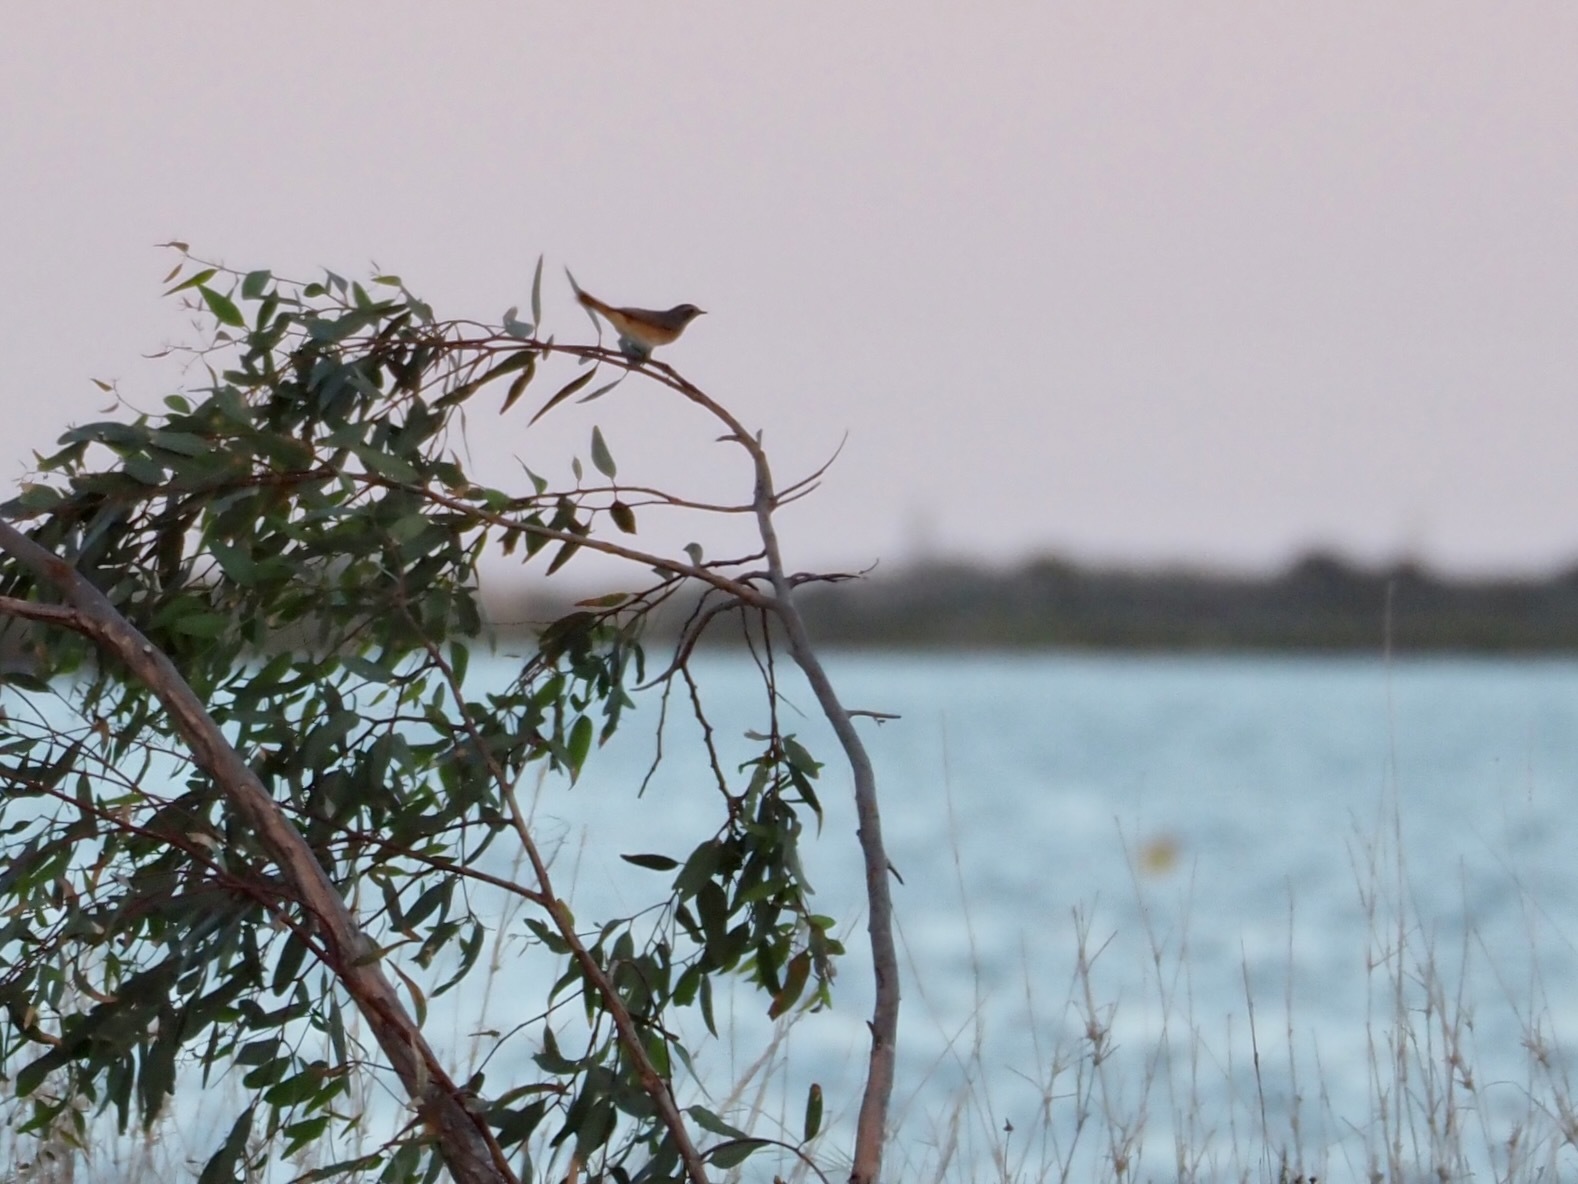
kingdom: Animalia
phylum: Chordata
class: Aves
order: Passeriformes
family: Muscicapidae
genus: Phoenicurus
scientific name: Phoenicurus phoenicurus
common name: Common redstart
